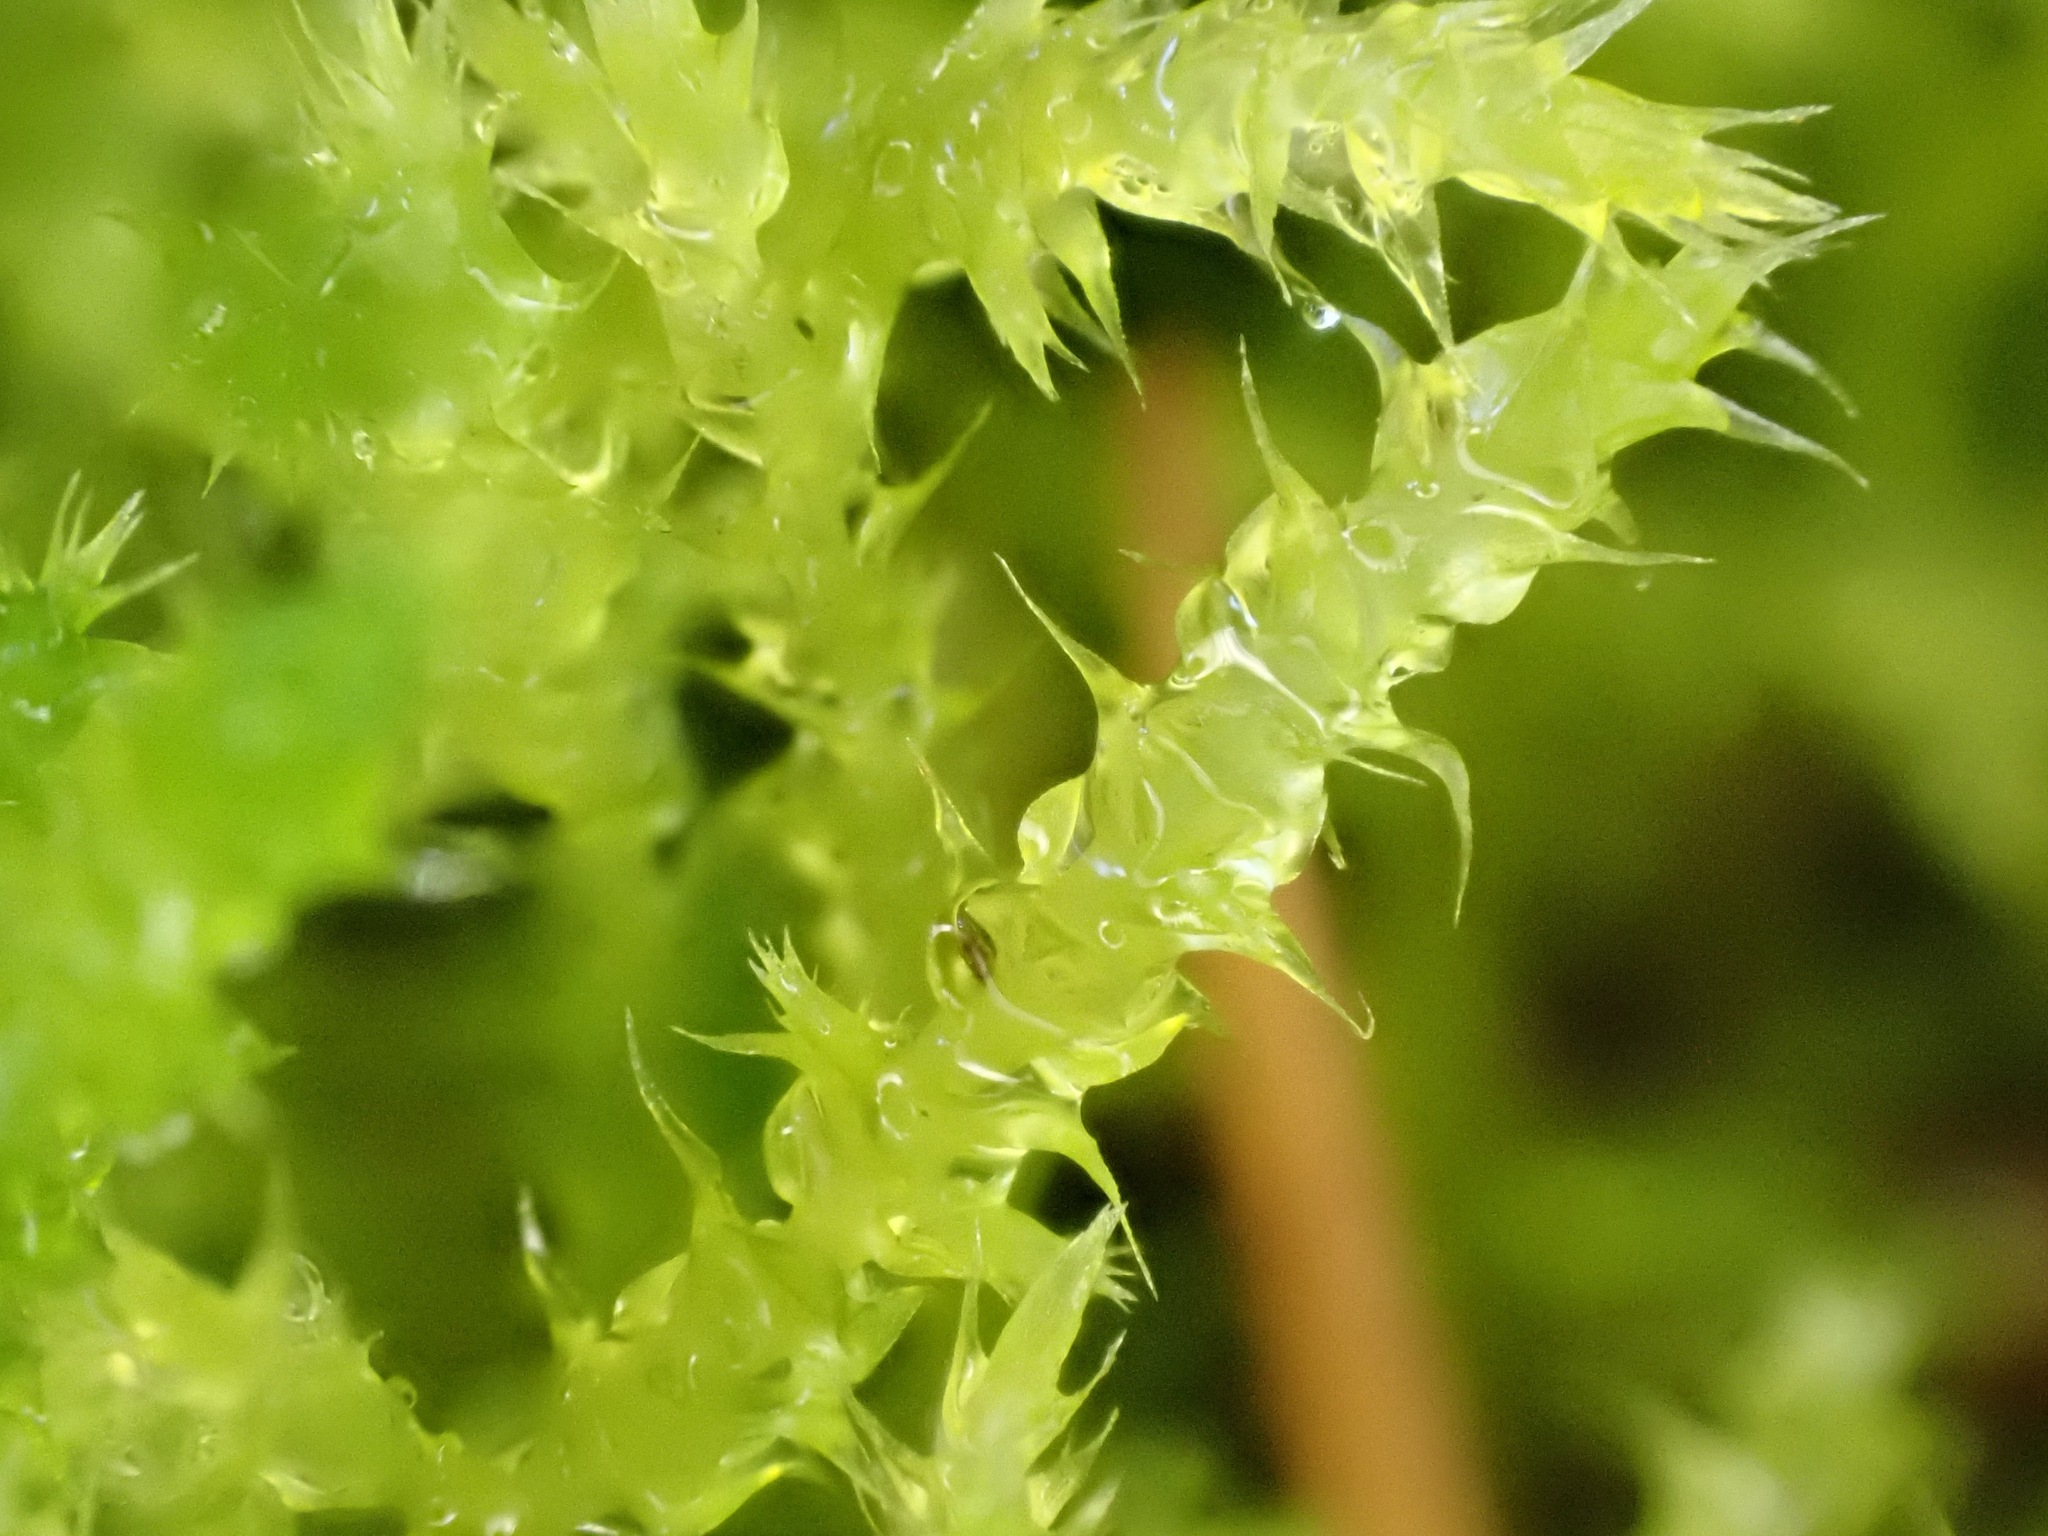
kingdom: Plantae
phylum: Bryophyta
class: Bryopsida
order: Hypnales
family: Hylocomiaceae
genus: Rhytidiadelphus
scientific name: Rhytidiadelphus squarrosus
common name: Springy turf-moss
